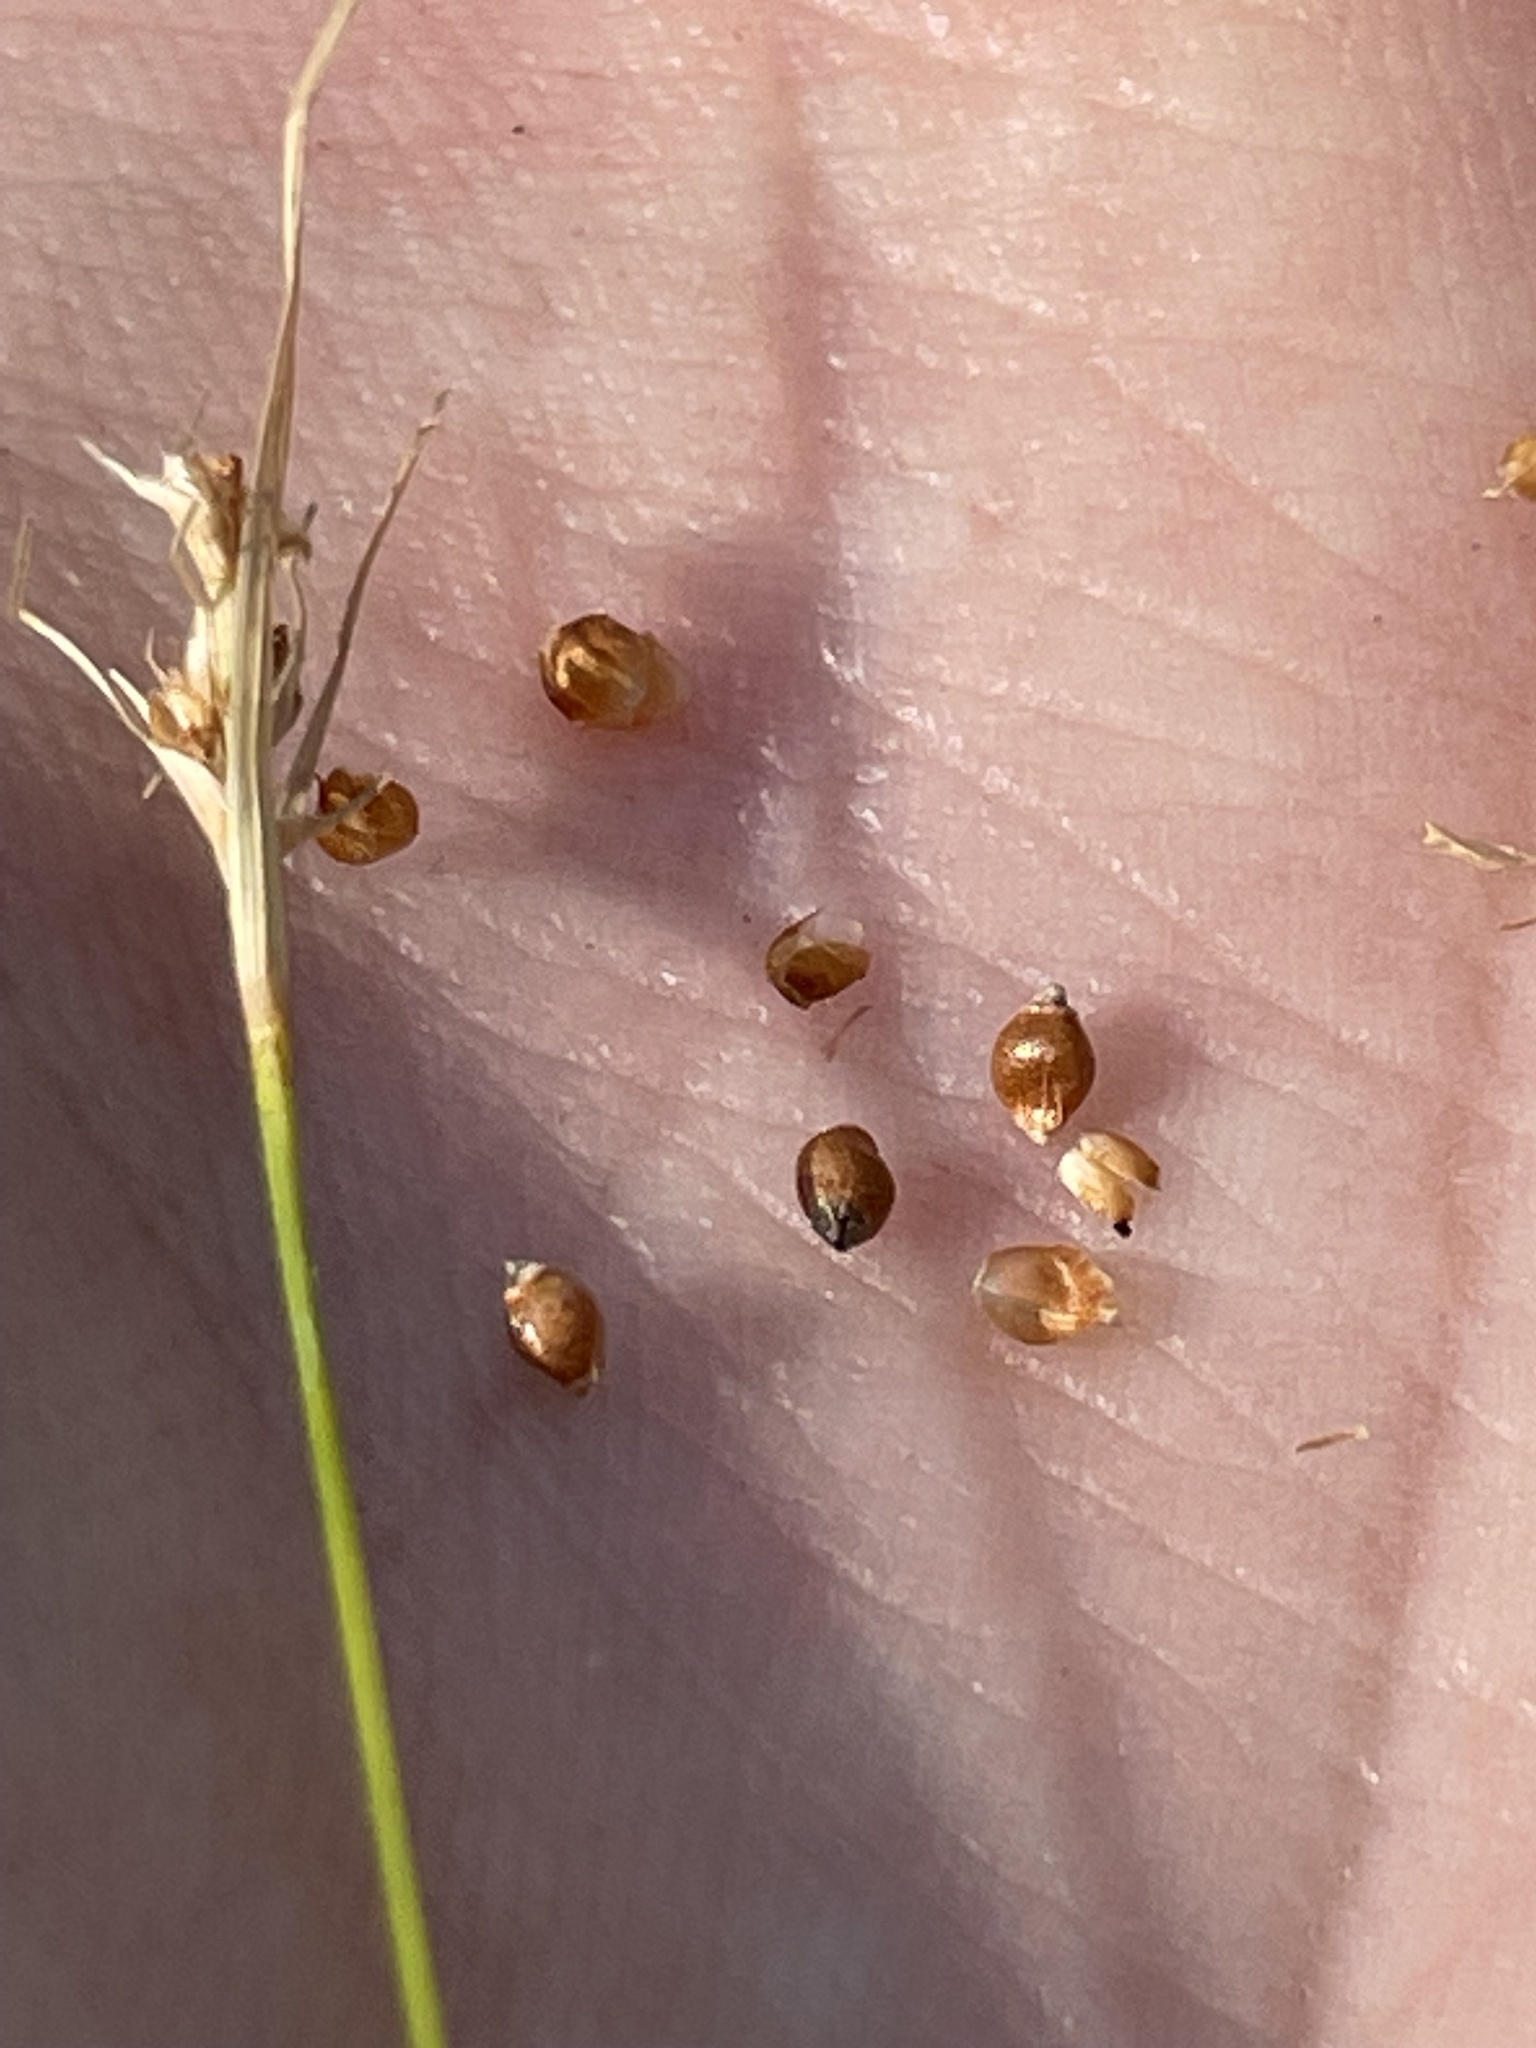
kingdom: Plantae
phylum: Tracheophyta
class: Liliopsida
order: Poales
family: Cyperaceae
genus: Rhynchospora
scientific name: Rhynchospora debilis
